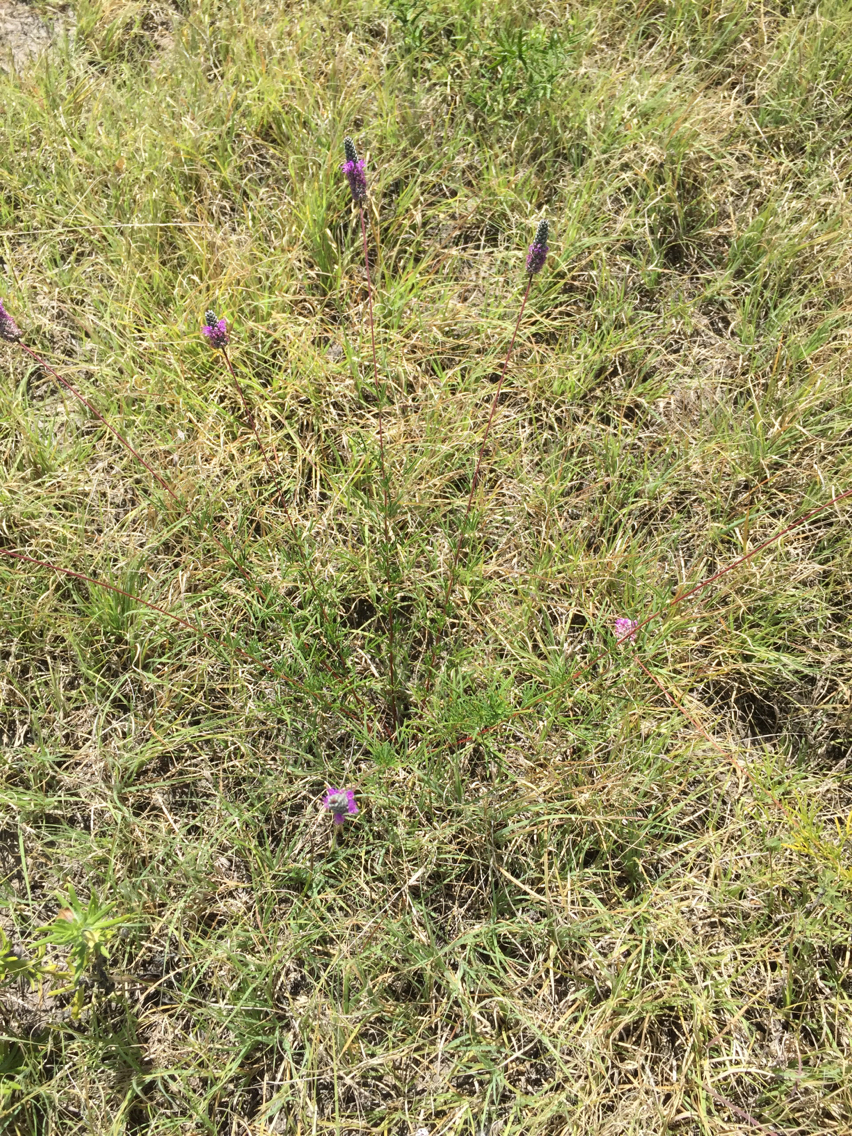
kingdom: Plantae
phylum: Tracheophyta
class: Magnoliopsida
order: Fabales
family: Fabaceae
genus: Dalea
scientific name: Dalea tenuis
